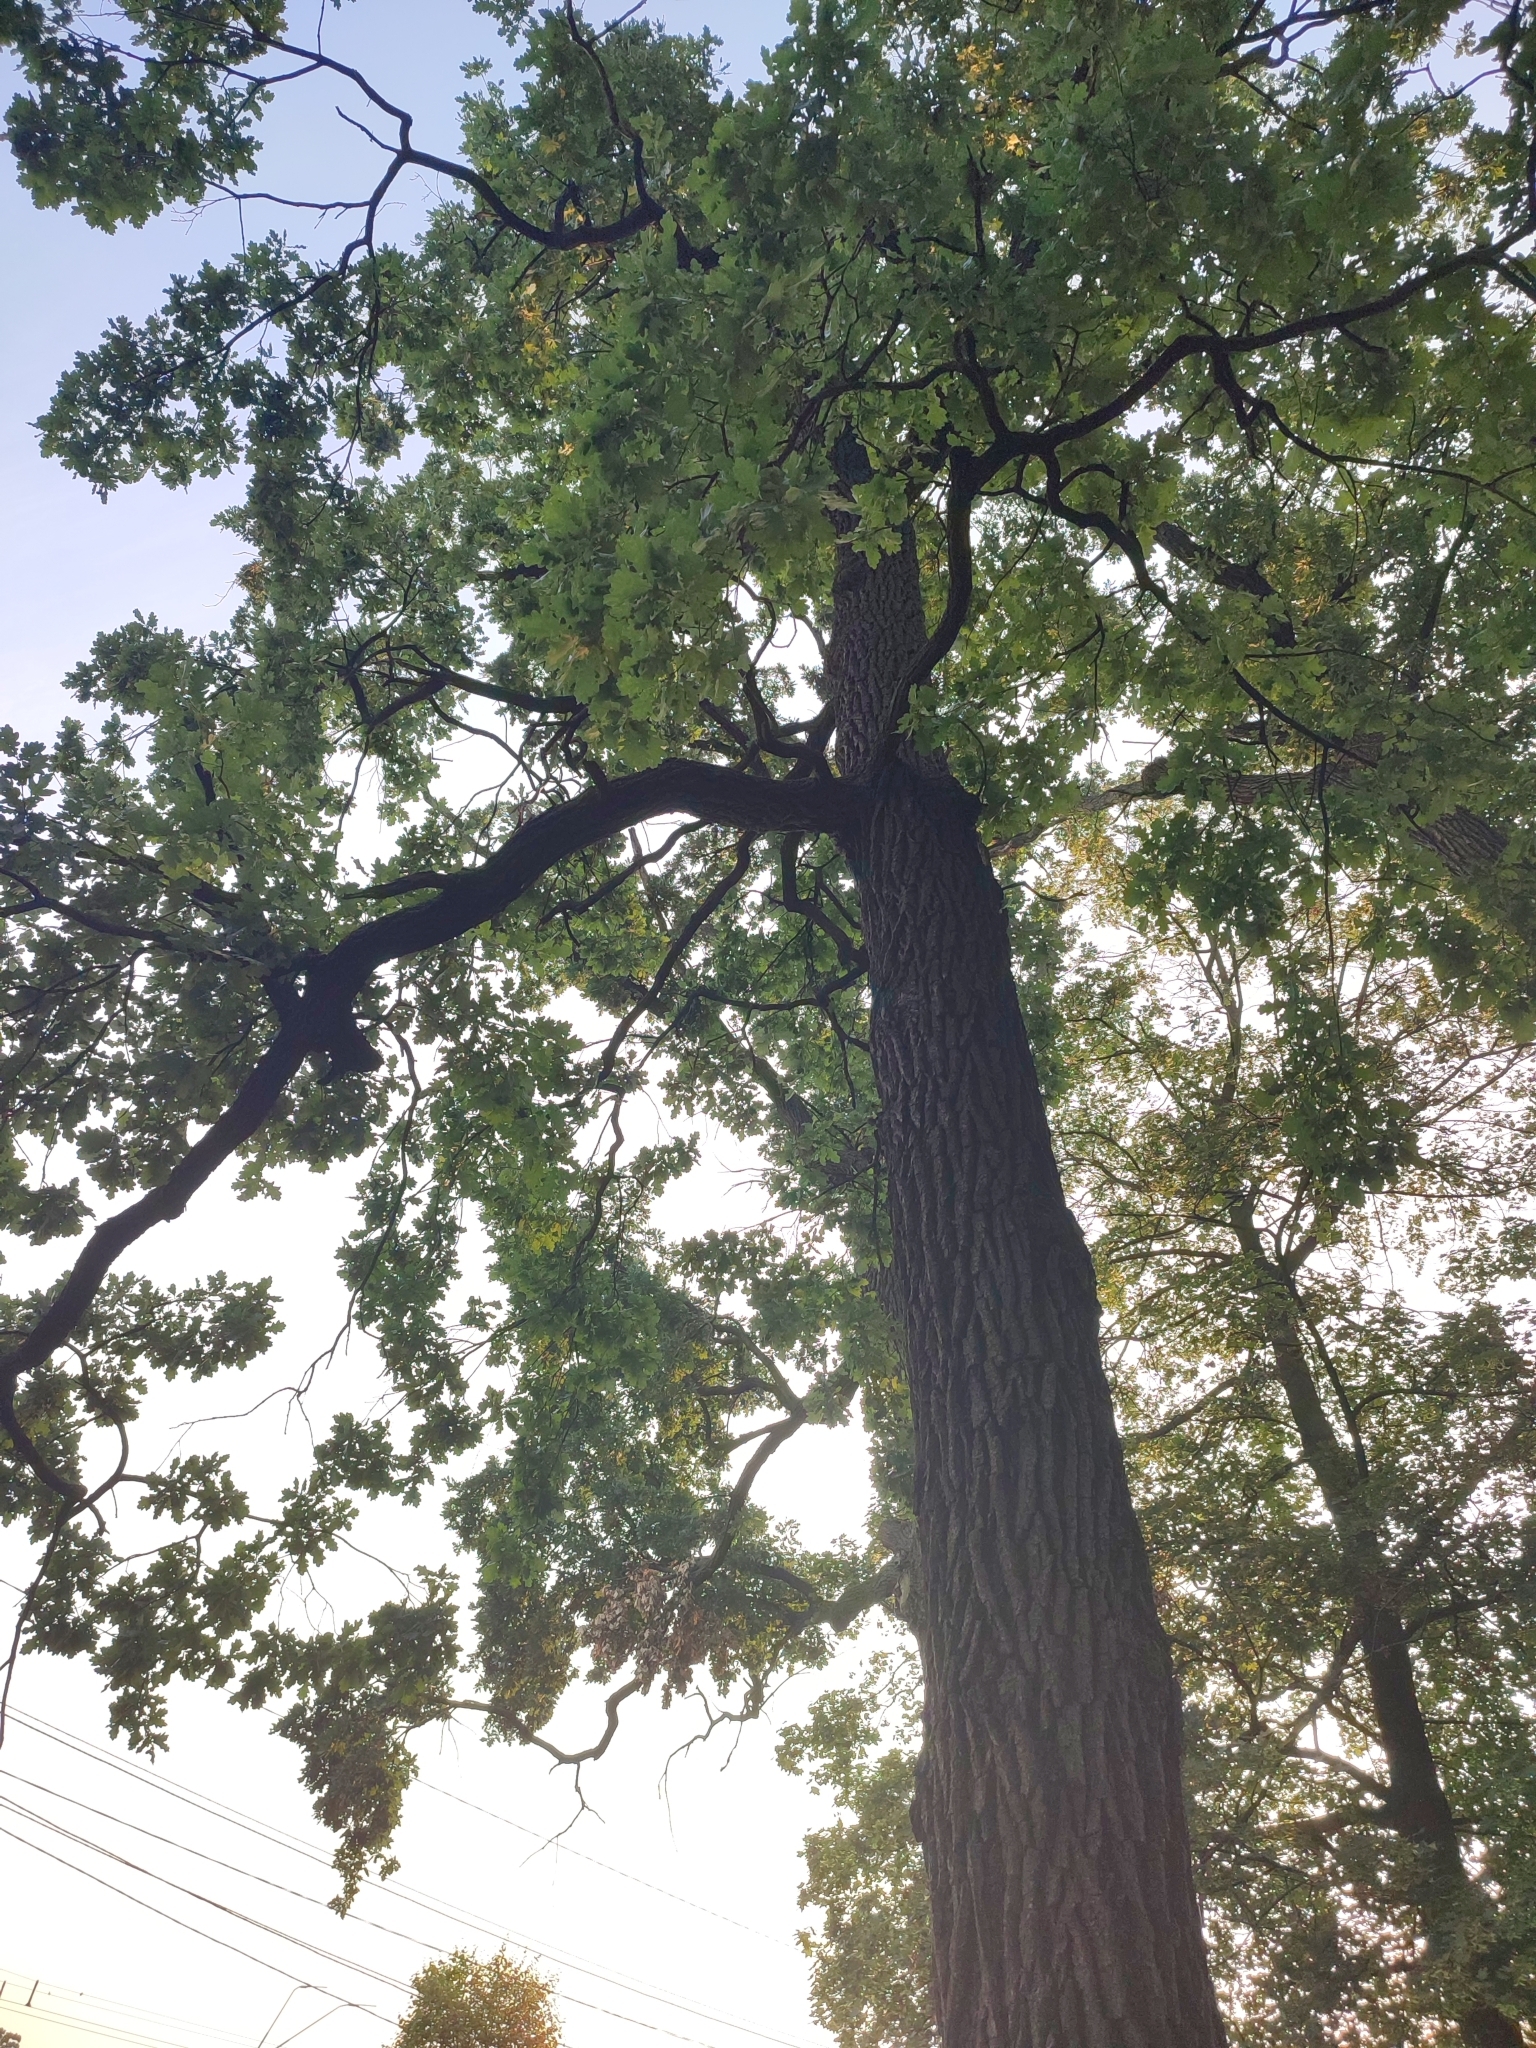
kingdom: Plantae
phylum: Tracheophyta
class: Magnoliopsida
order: Fagales
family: Fagaceae
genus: Quercus
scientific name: Quercus robur
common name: Pedunculate oak
